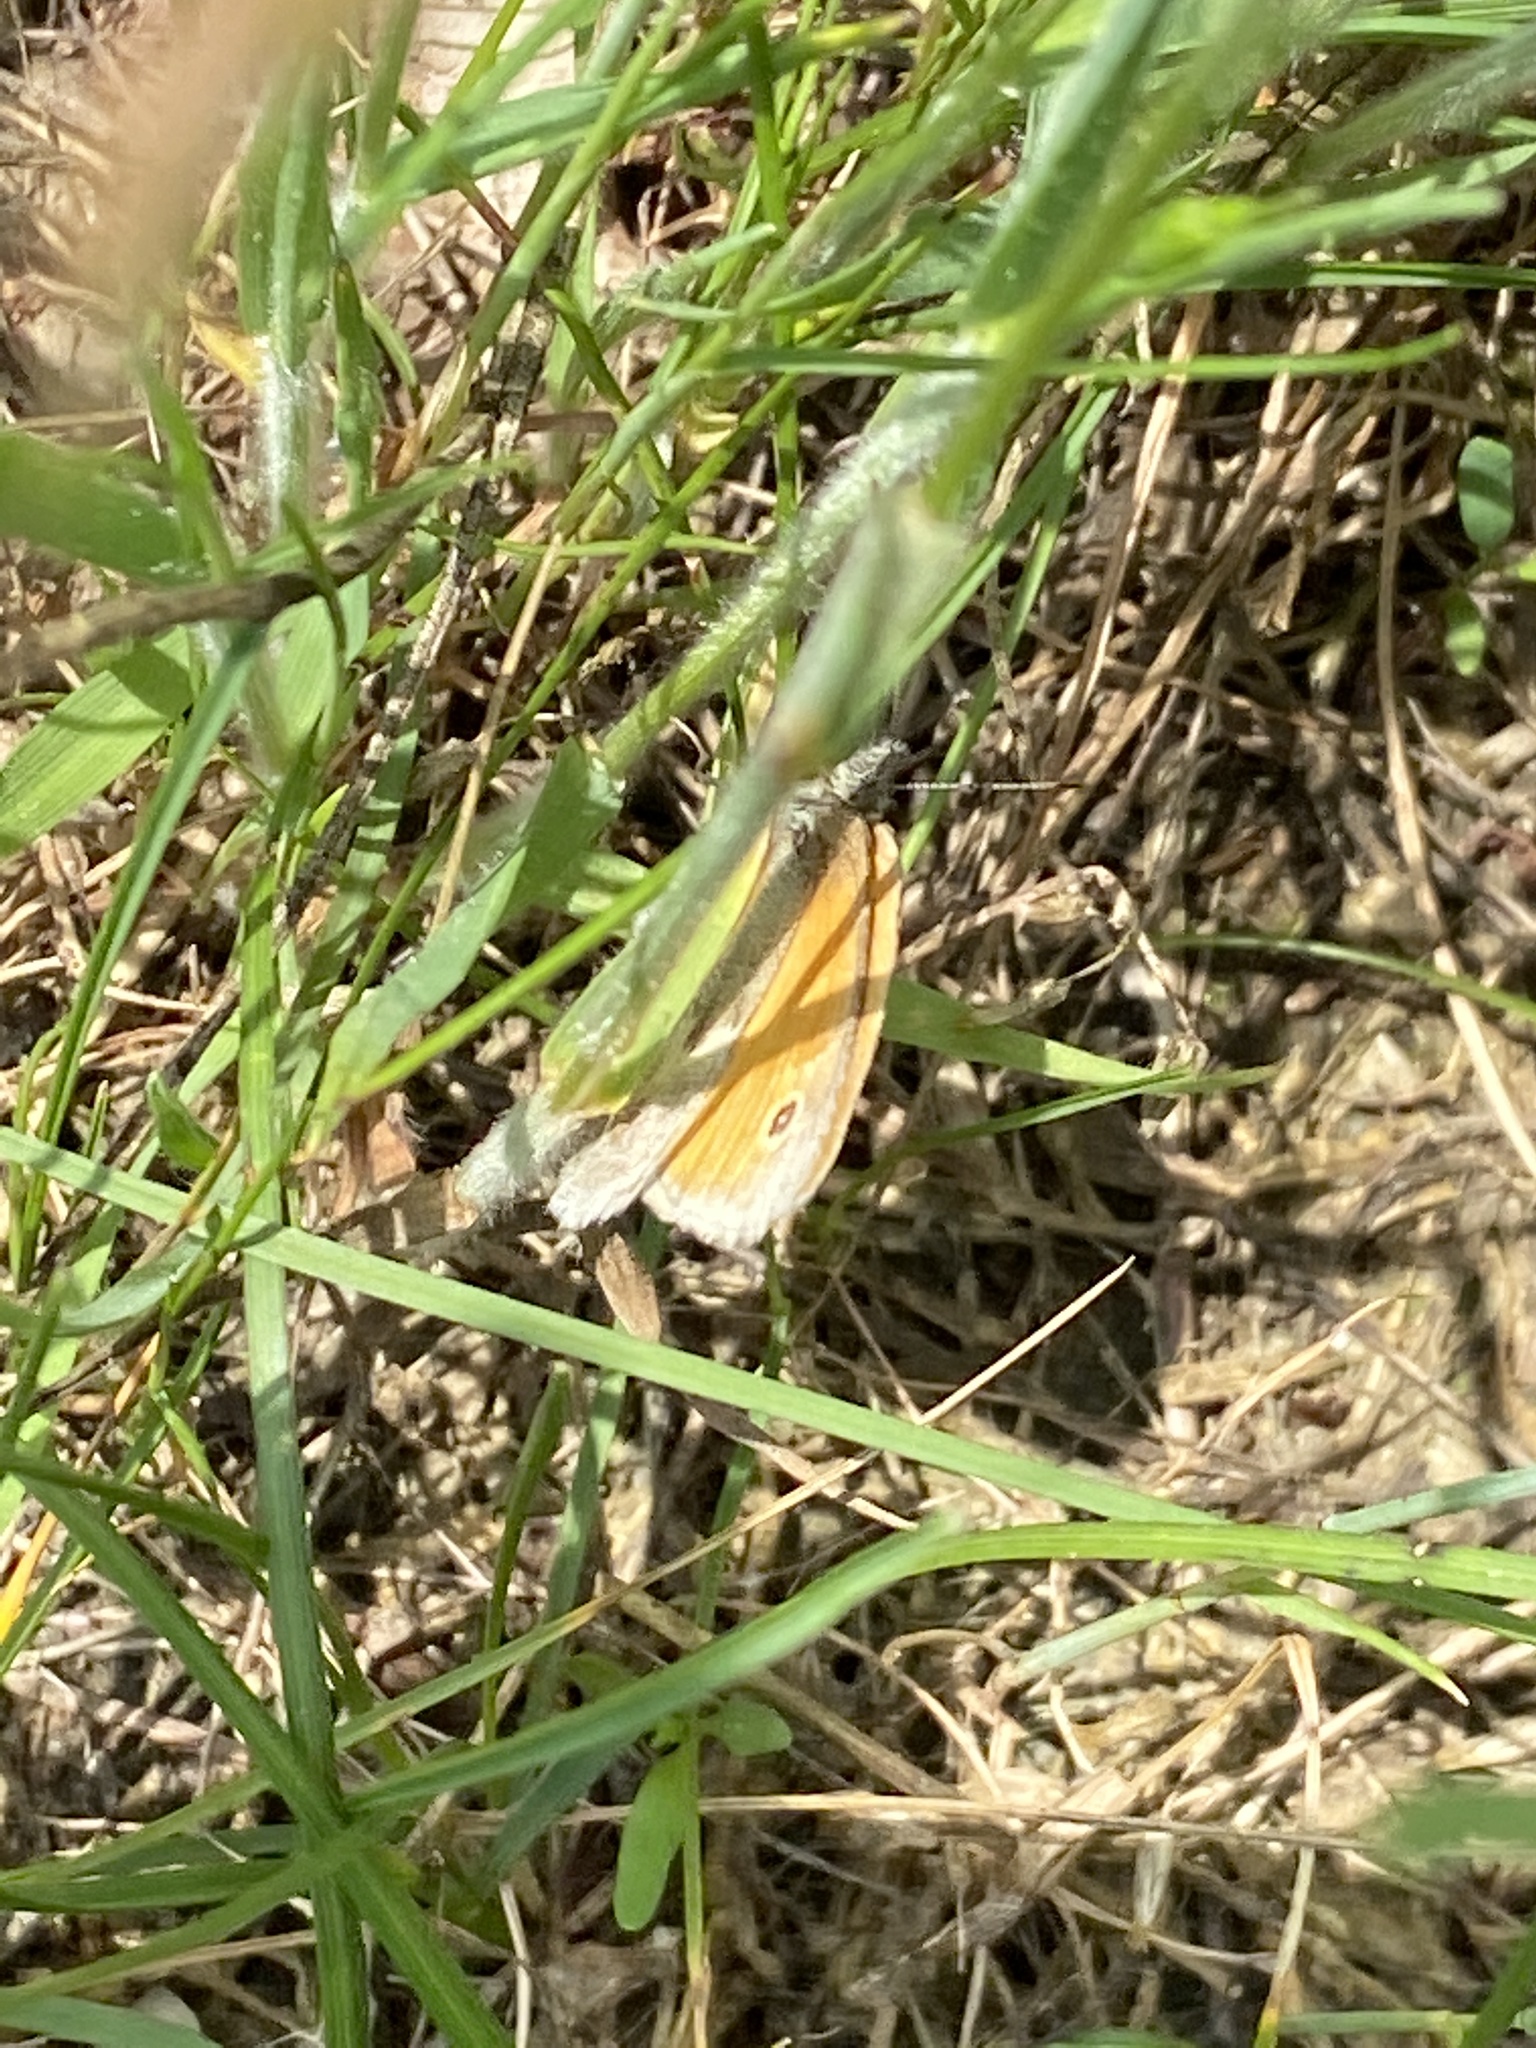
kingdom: Animalia
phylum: Arthropoda
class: Insecta
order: Lepidoptera
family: Nymphalidae
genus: Coenonympha
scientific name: Coenonympha pamphilus
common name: Small heath
